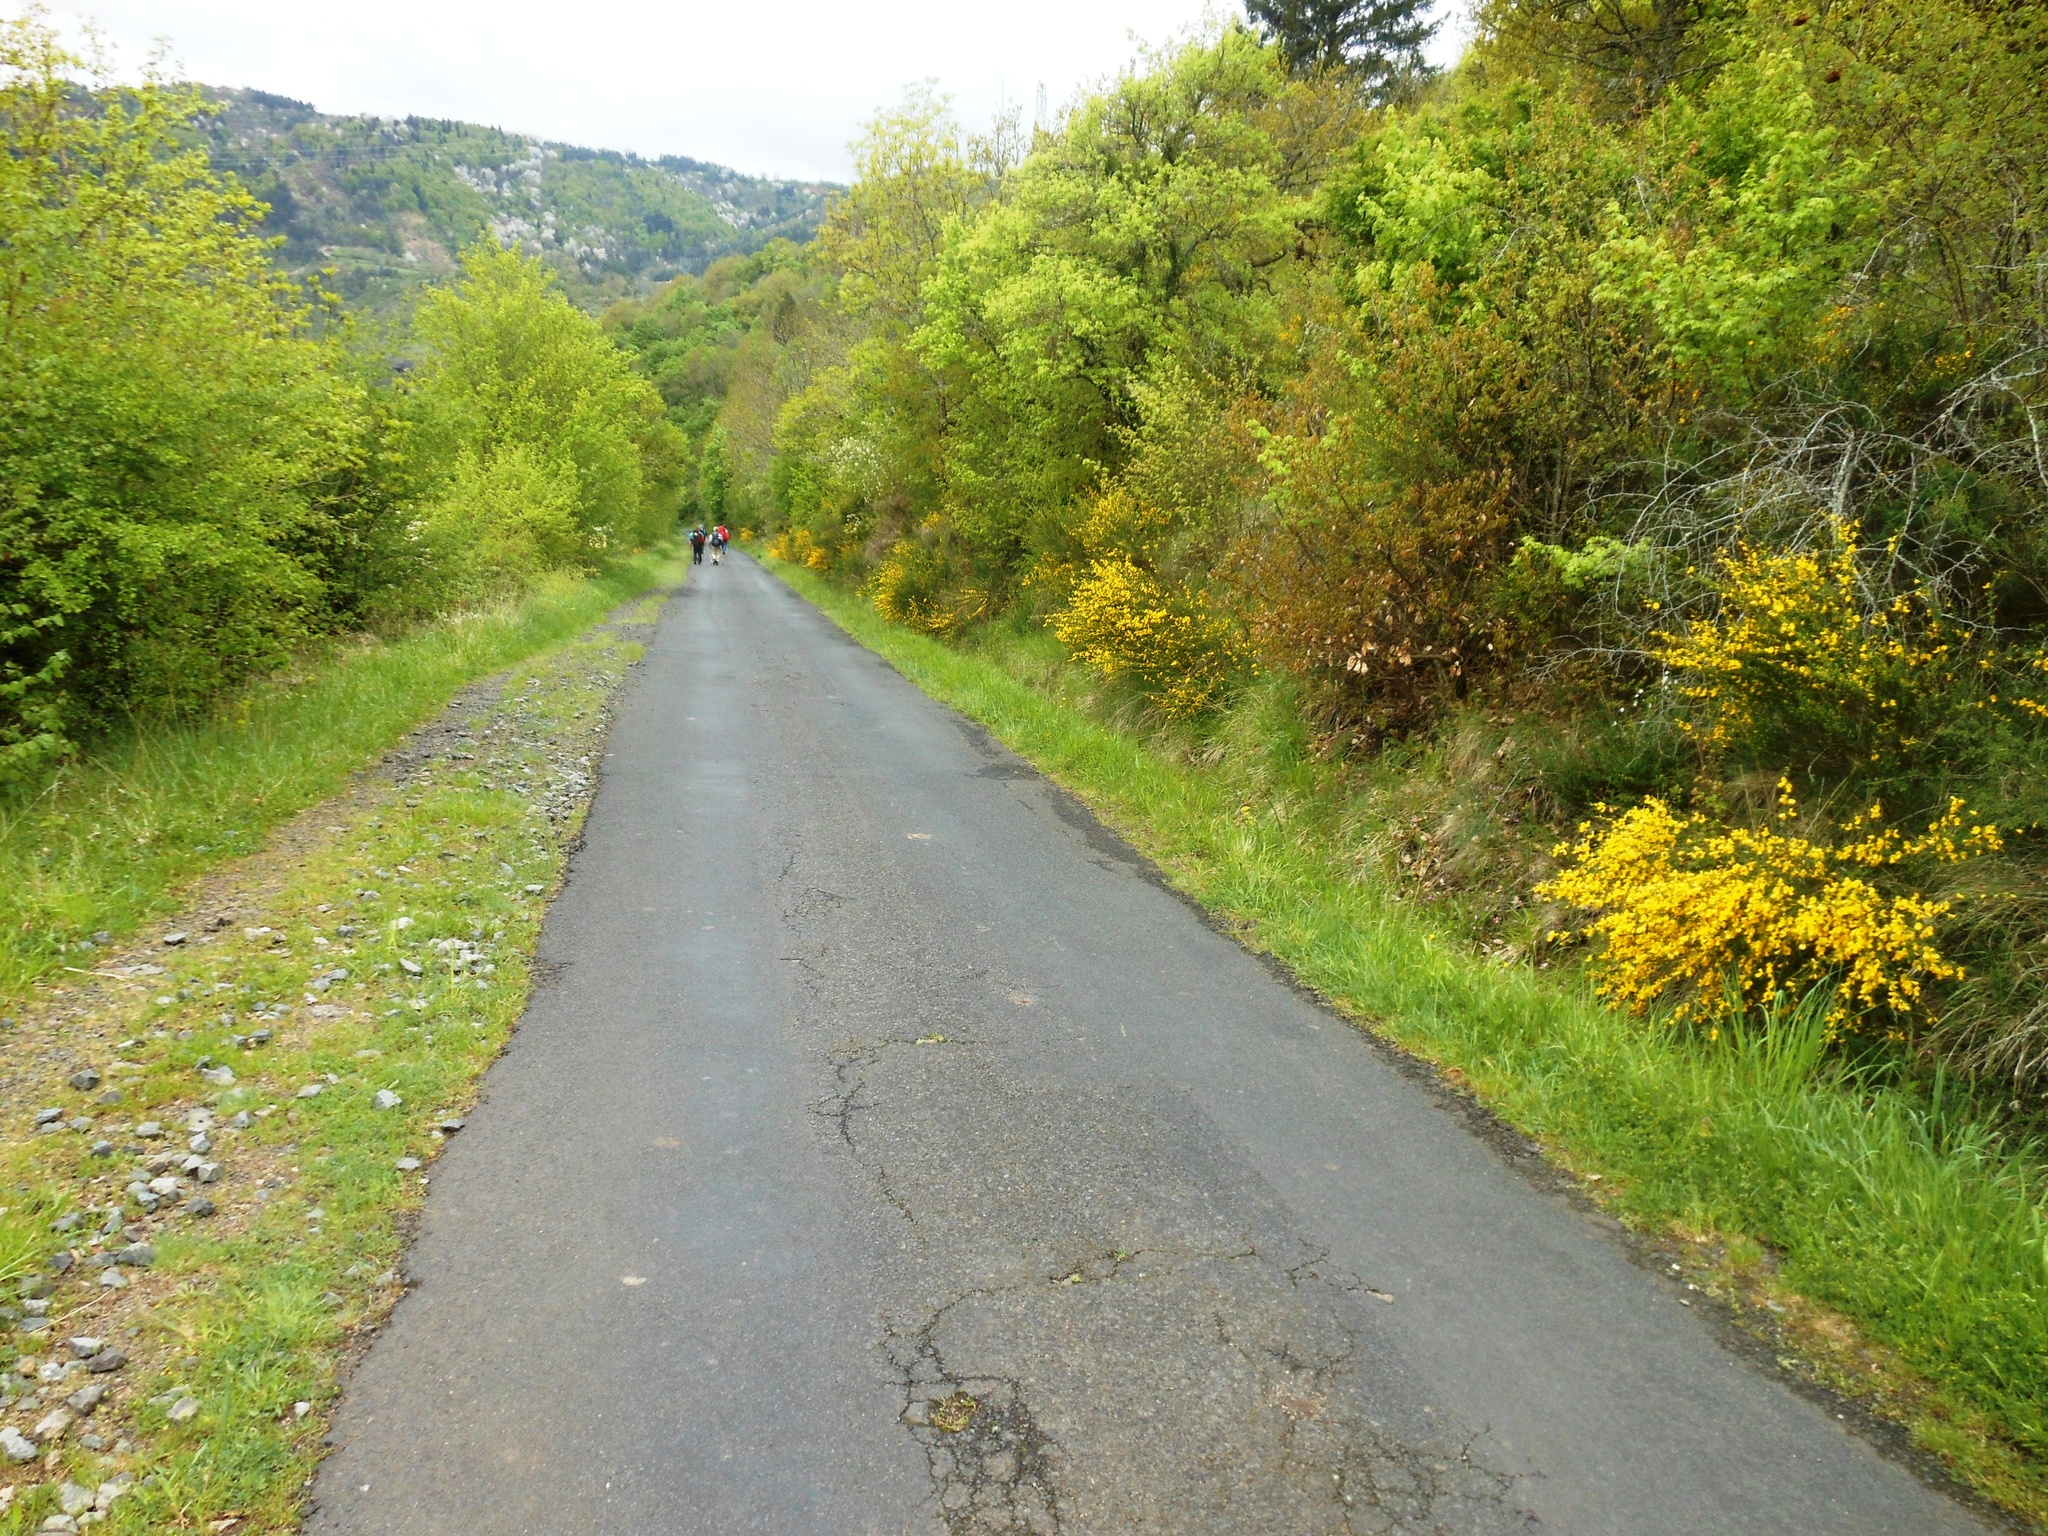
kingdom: Plantae
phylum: Tracheophyta
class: Magnoliopsida
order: Fabales
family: Fabaceae
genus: Cytisus
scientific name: Cytisus scoparius
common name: Scotch broom
